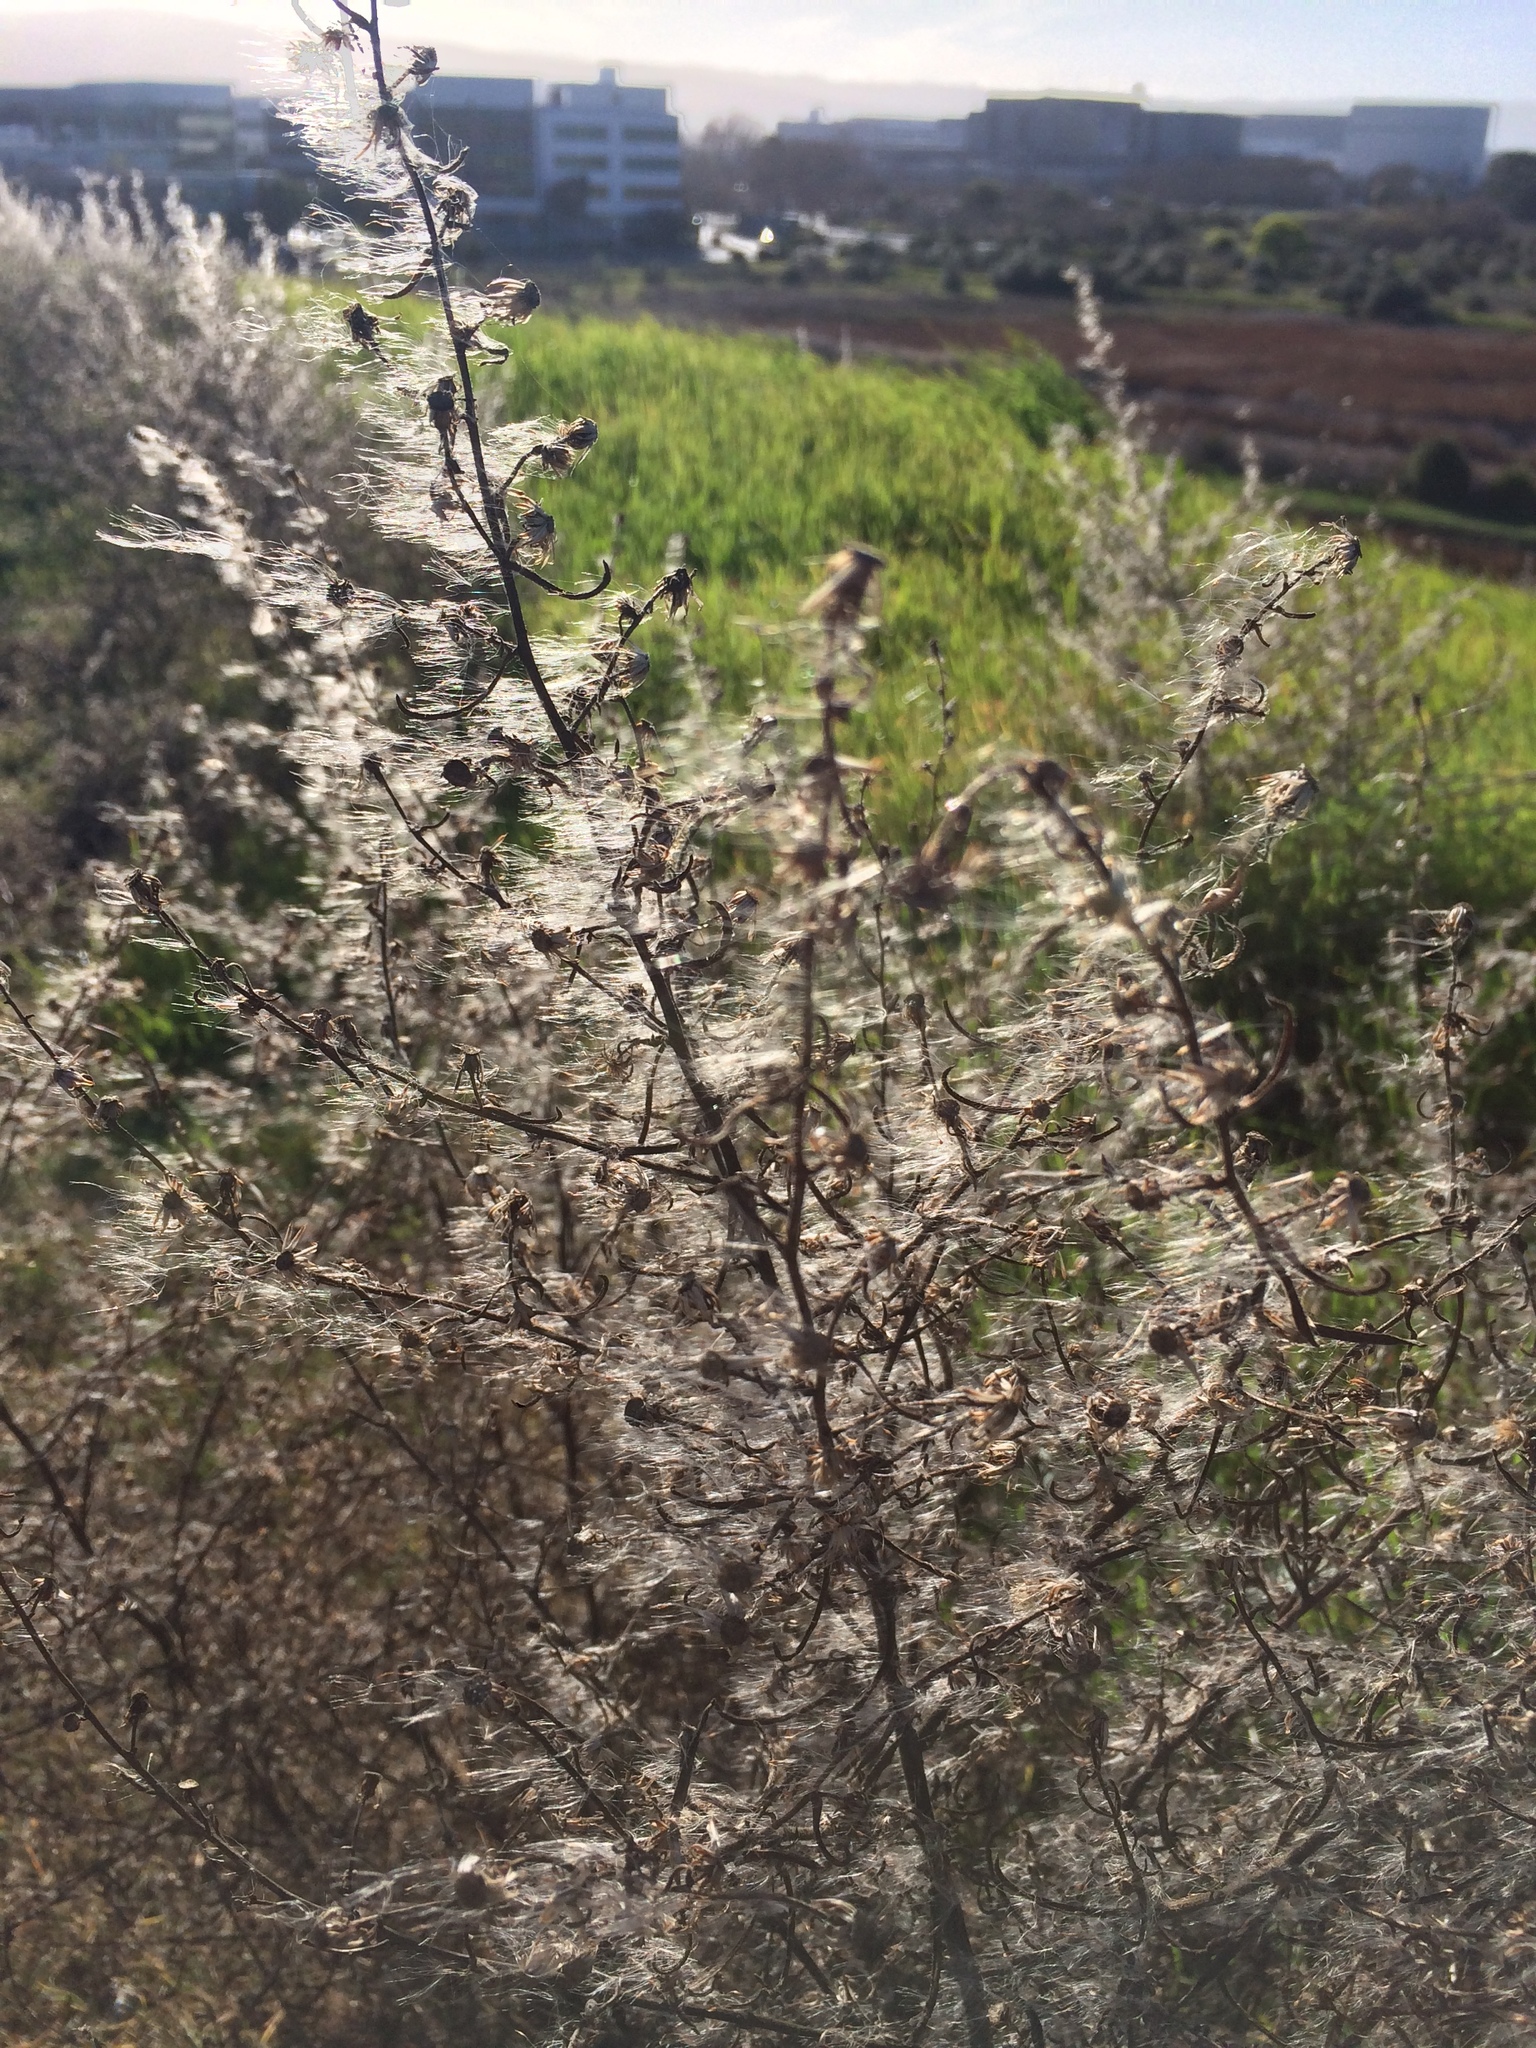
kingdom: Plantae
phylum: Tracheophyta
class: Magnoliopsida
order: Asterales
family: Asteraceae
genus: Dittrichia
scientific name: Dittrichia graveolens
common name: Stinking fleabane
